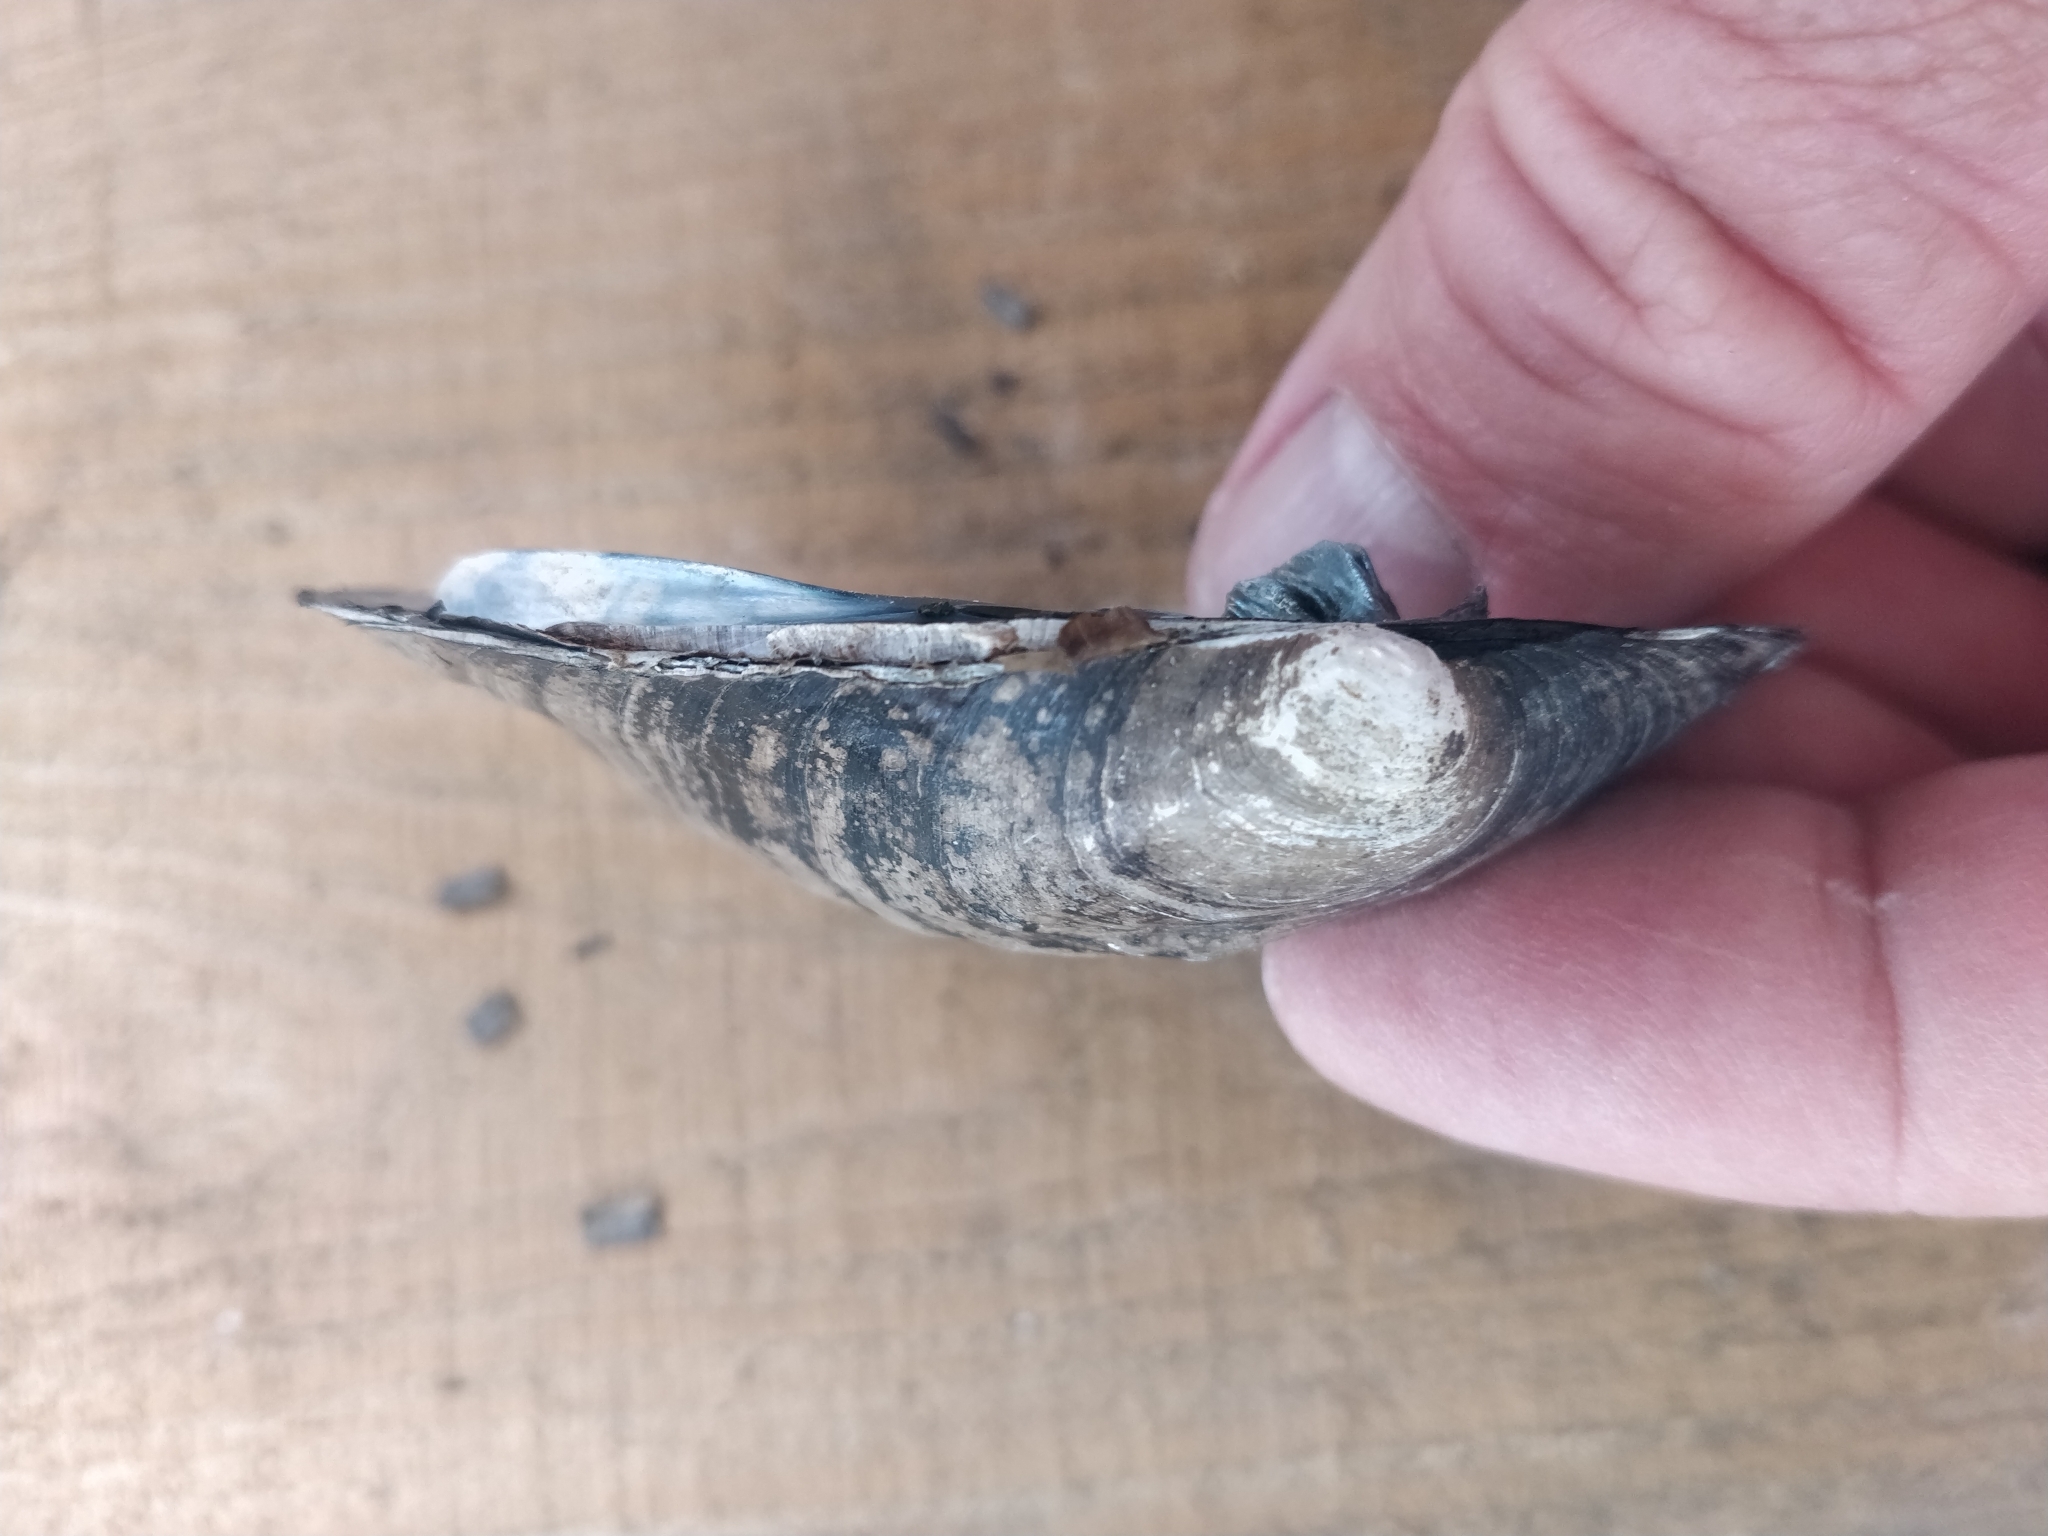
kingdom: Animalia
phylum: Mollusca
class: Bivalvia
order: Unionida
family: Unionidae
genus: Amblema
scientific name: Amblema plicata
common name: Threeridge
